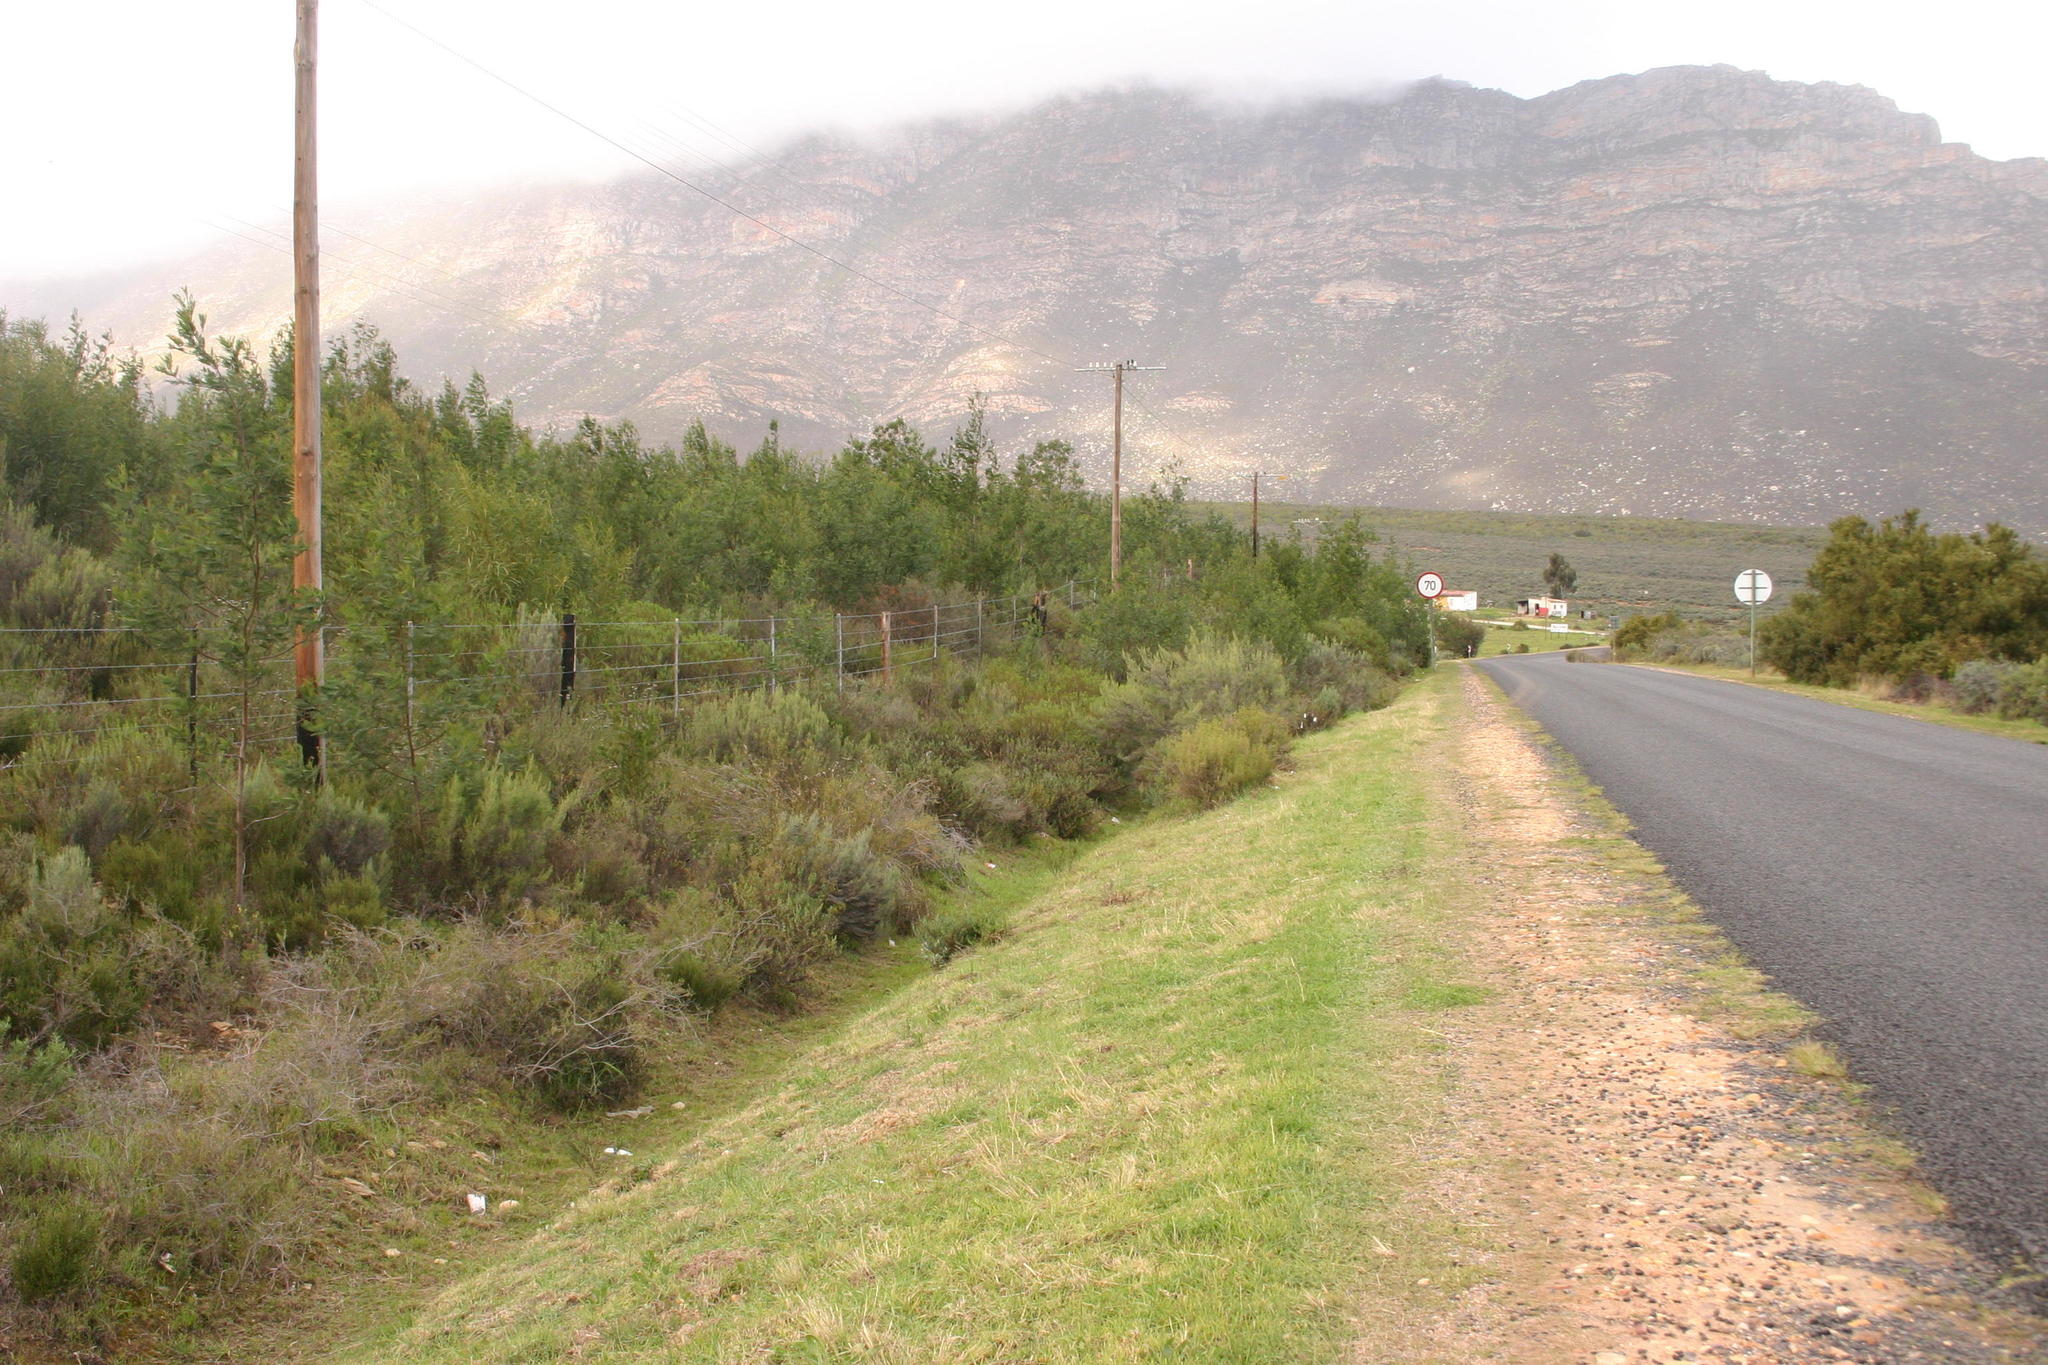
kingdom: Plantae
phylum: Tracheophyta
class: Magnoliopsida
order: Fabales
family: Fabaceae
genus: Acacia
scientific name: Acacia mearnsii
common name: Black wattle
